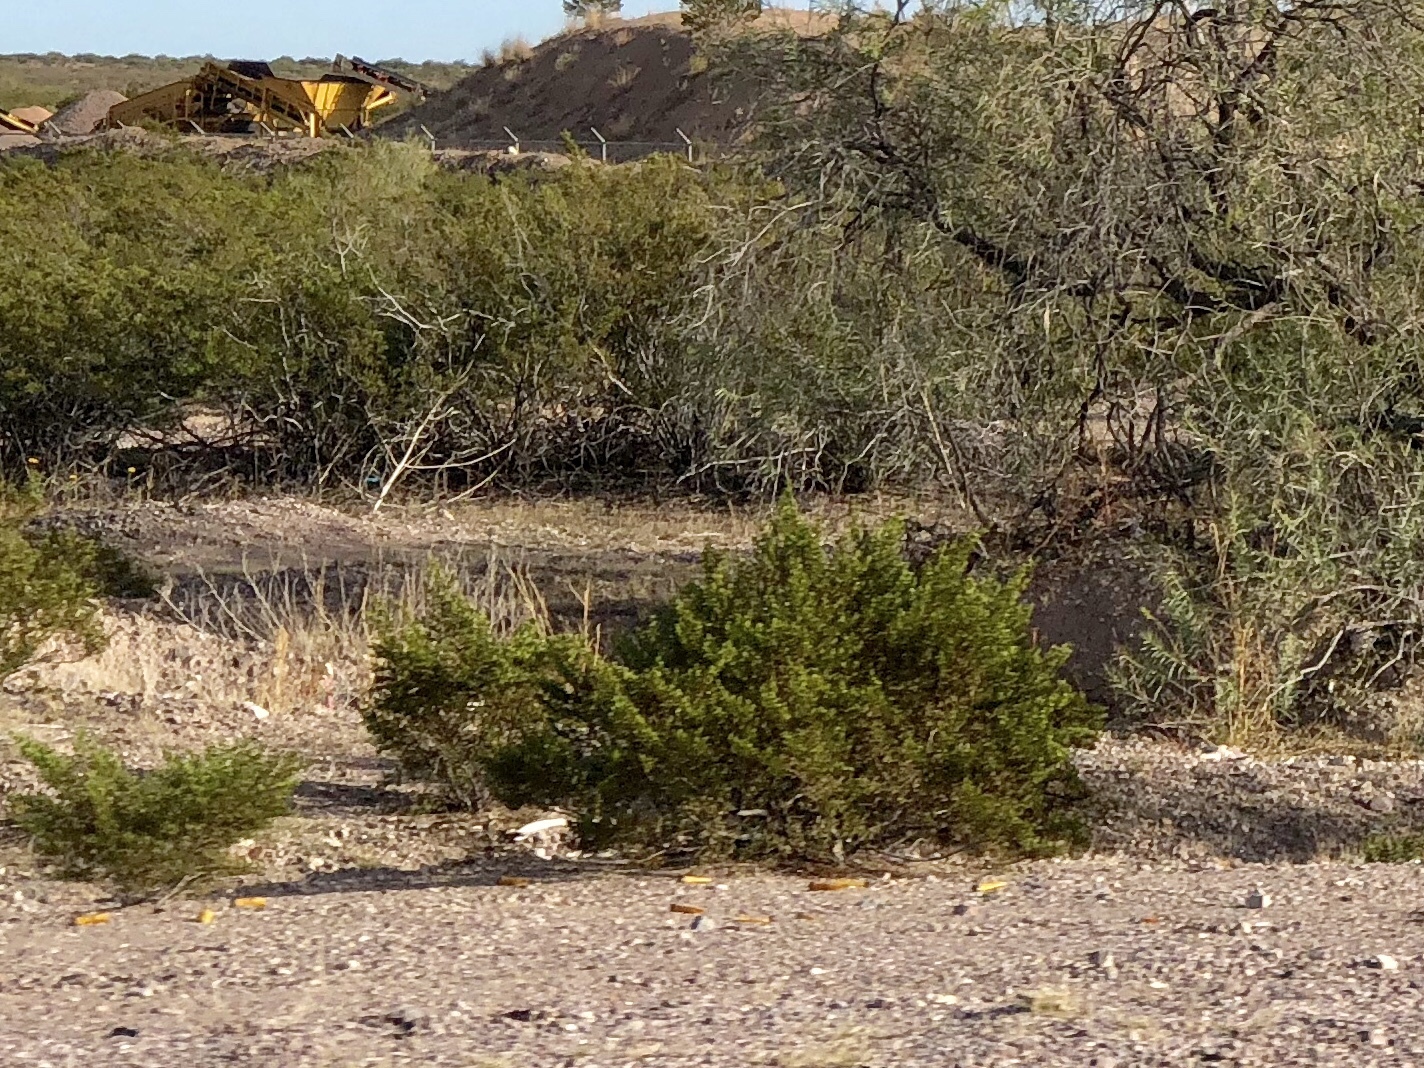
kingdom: Plantae
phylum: Tracheophyta
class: Magnoliopsida
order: Zygophyllales
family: Zygophyllaceae
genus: Larrea
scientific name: Larrea tridentata
